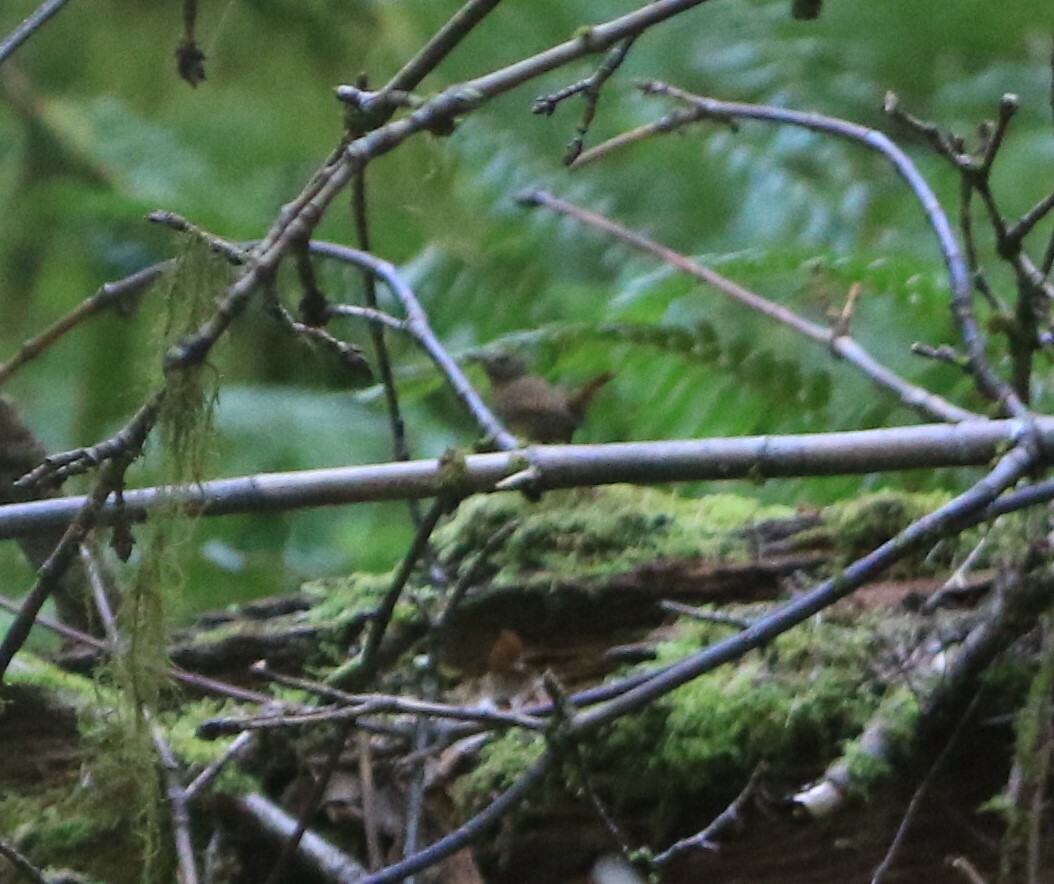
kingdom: Animalia
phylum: Chordata
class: Aves
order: Passeriformes
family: Troglodytidae
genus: Troglodytes
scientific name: Troglodytes pacificus
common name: Pacific wren
